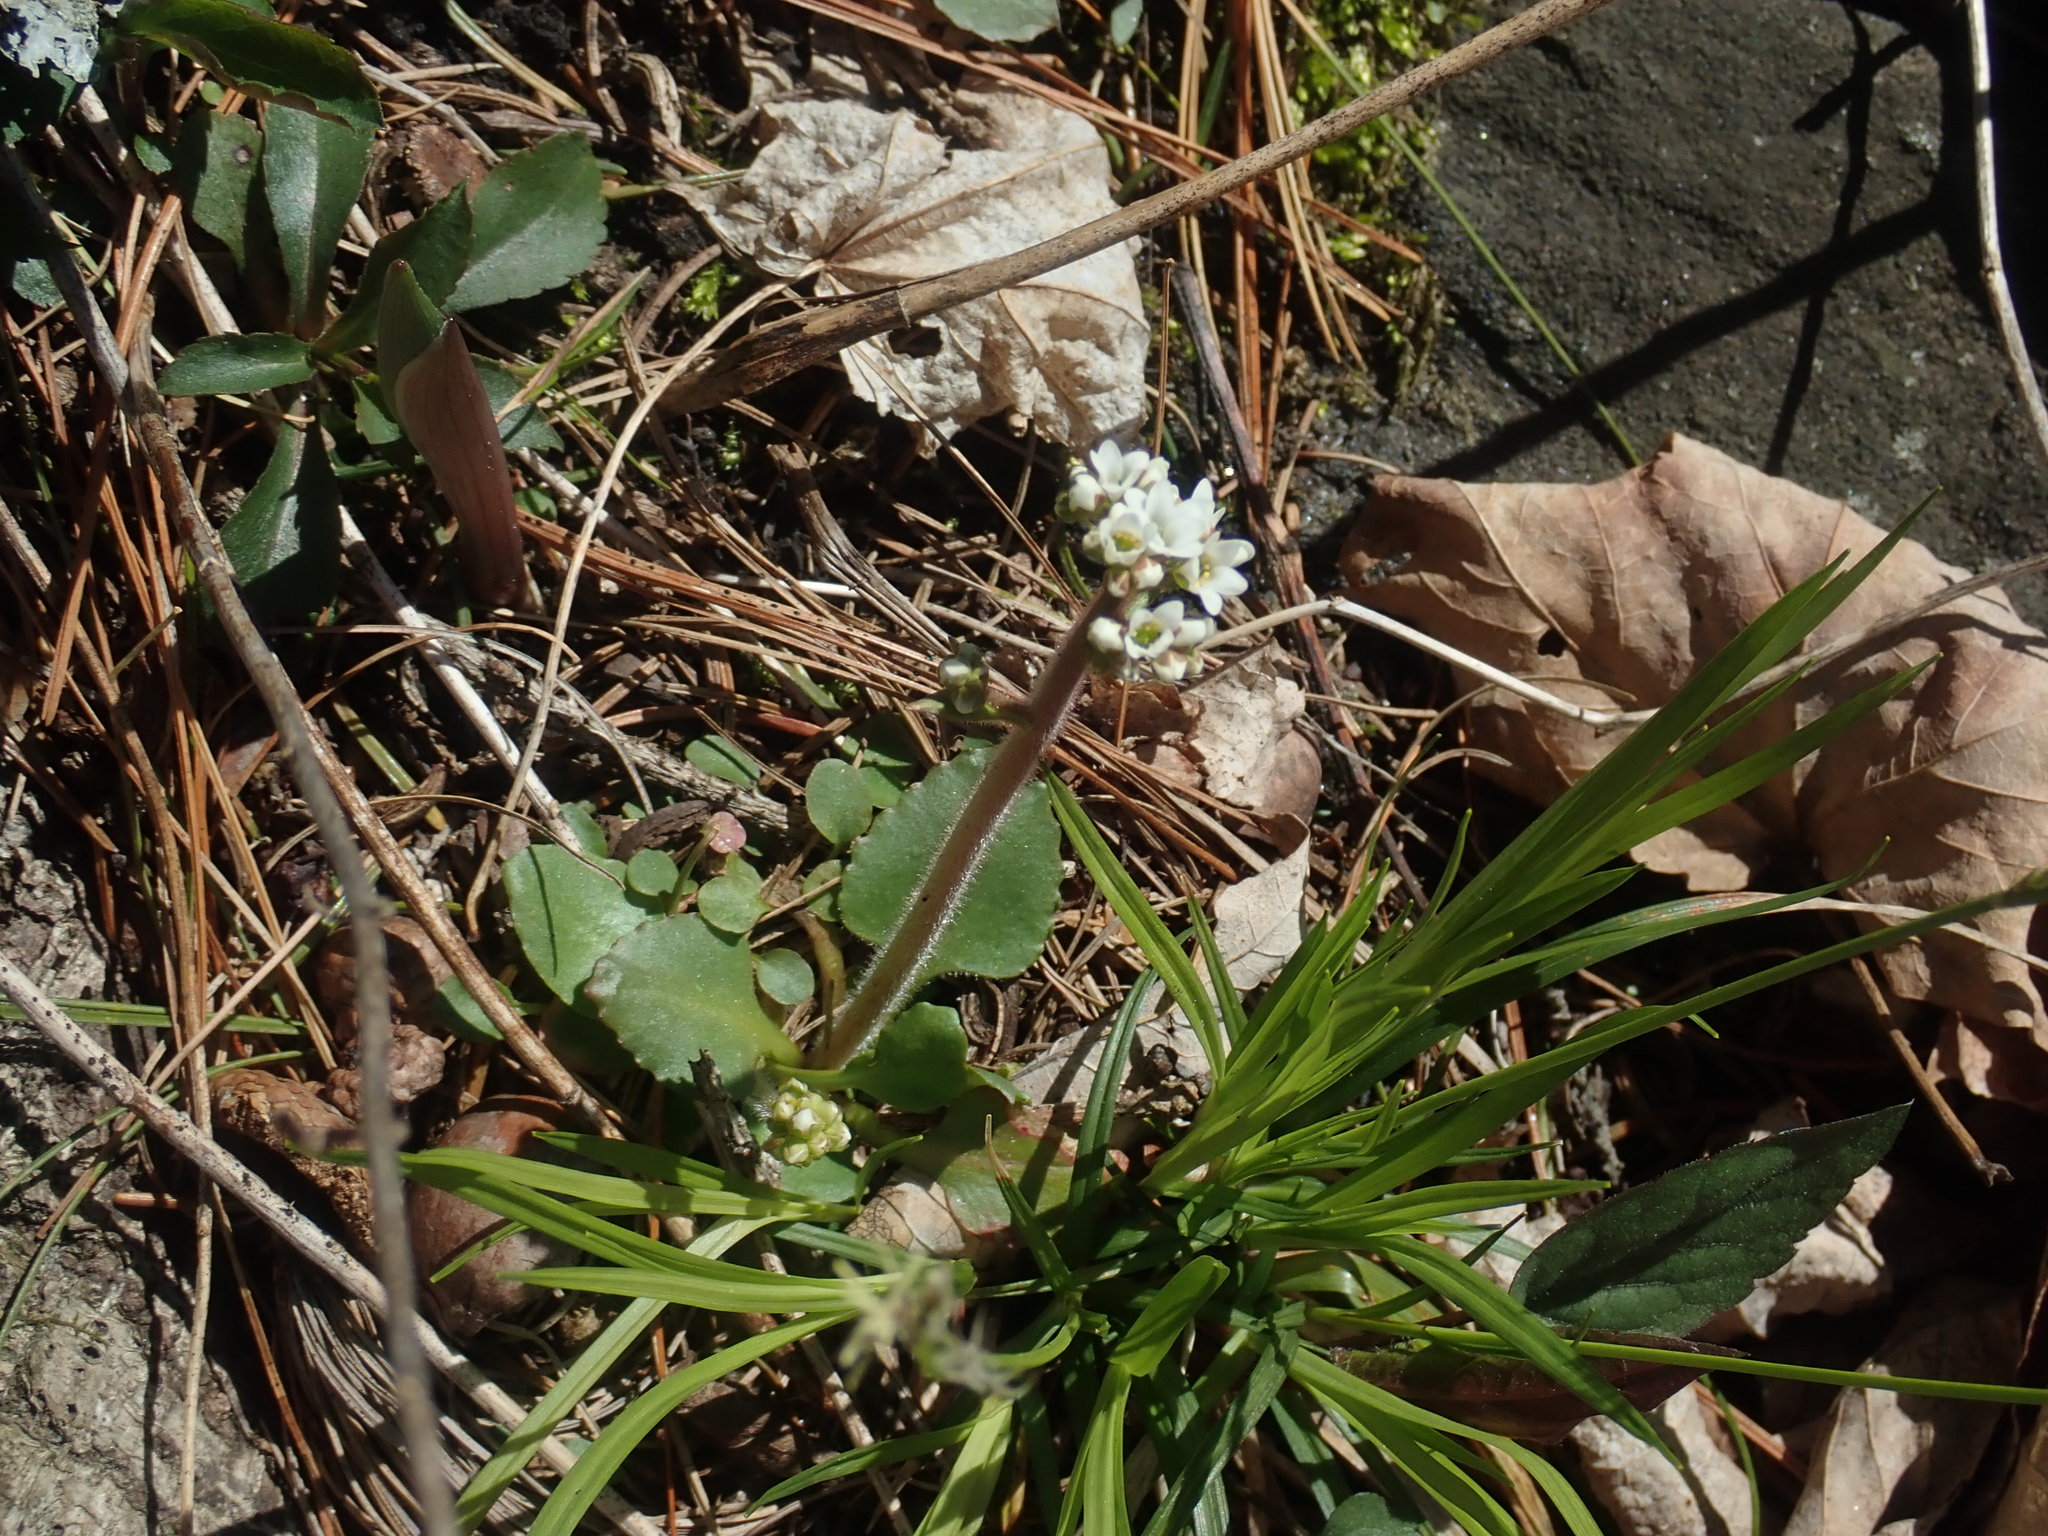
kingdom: Plantae
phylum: Tracheophyta
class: Magnoliopsida
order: Saxifragales
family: Saxifragaceae
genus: Micranthes
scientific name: Micranthes virginiensis
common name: Early saxifrage
